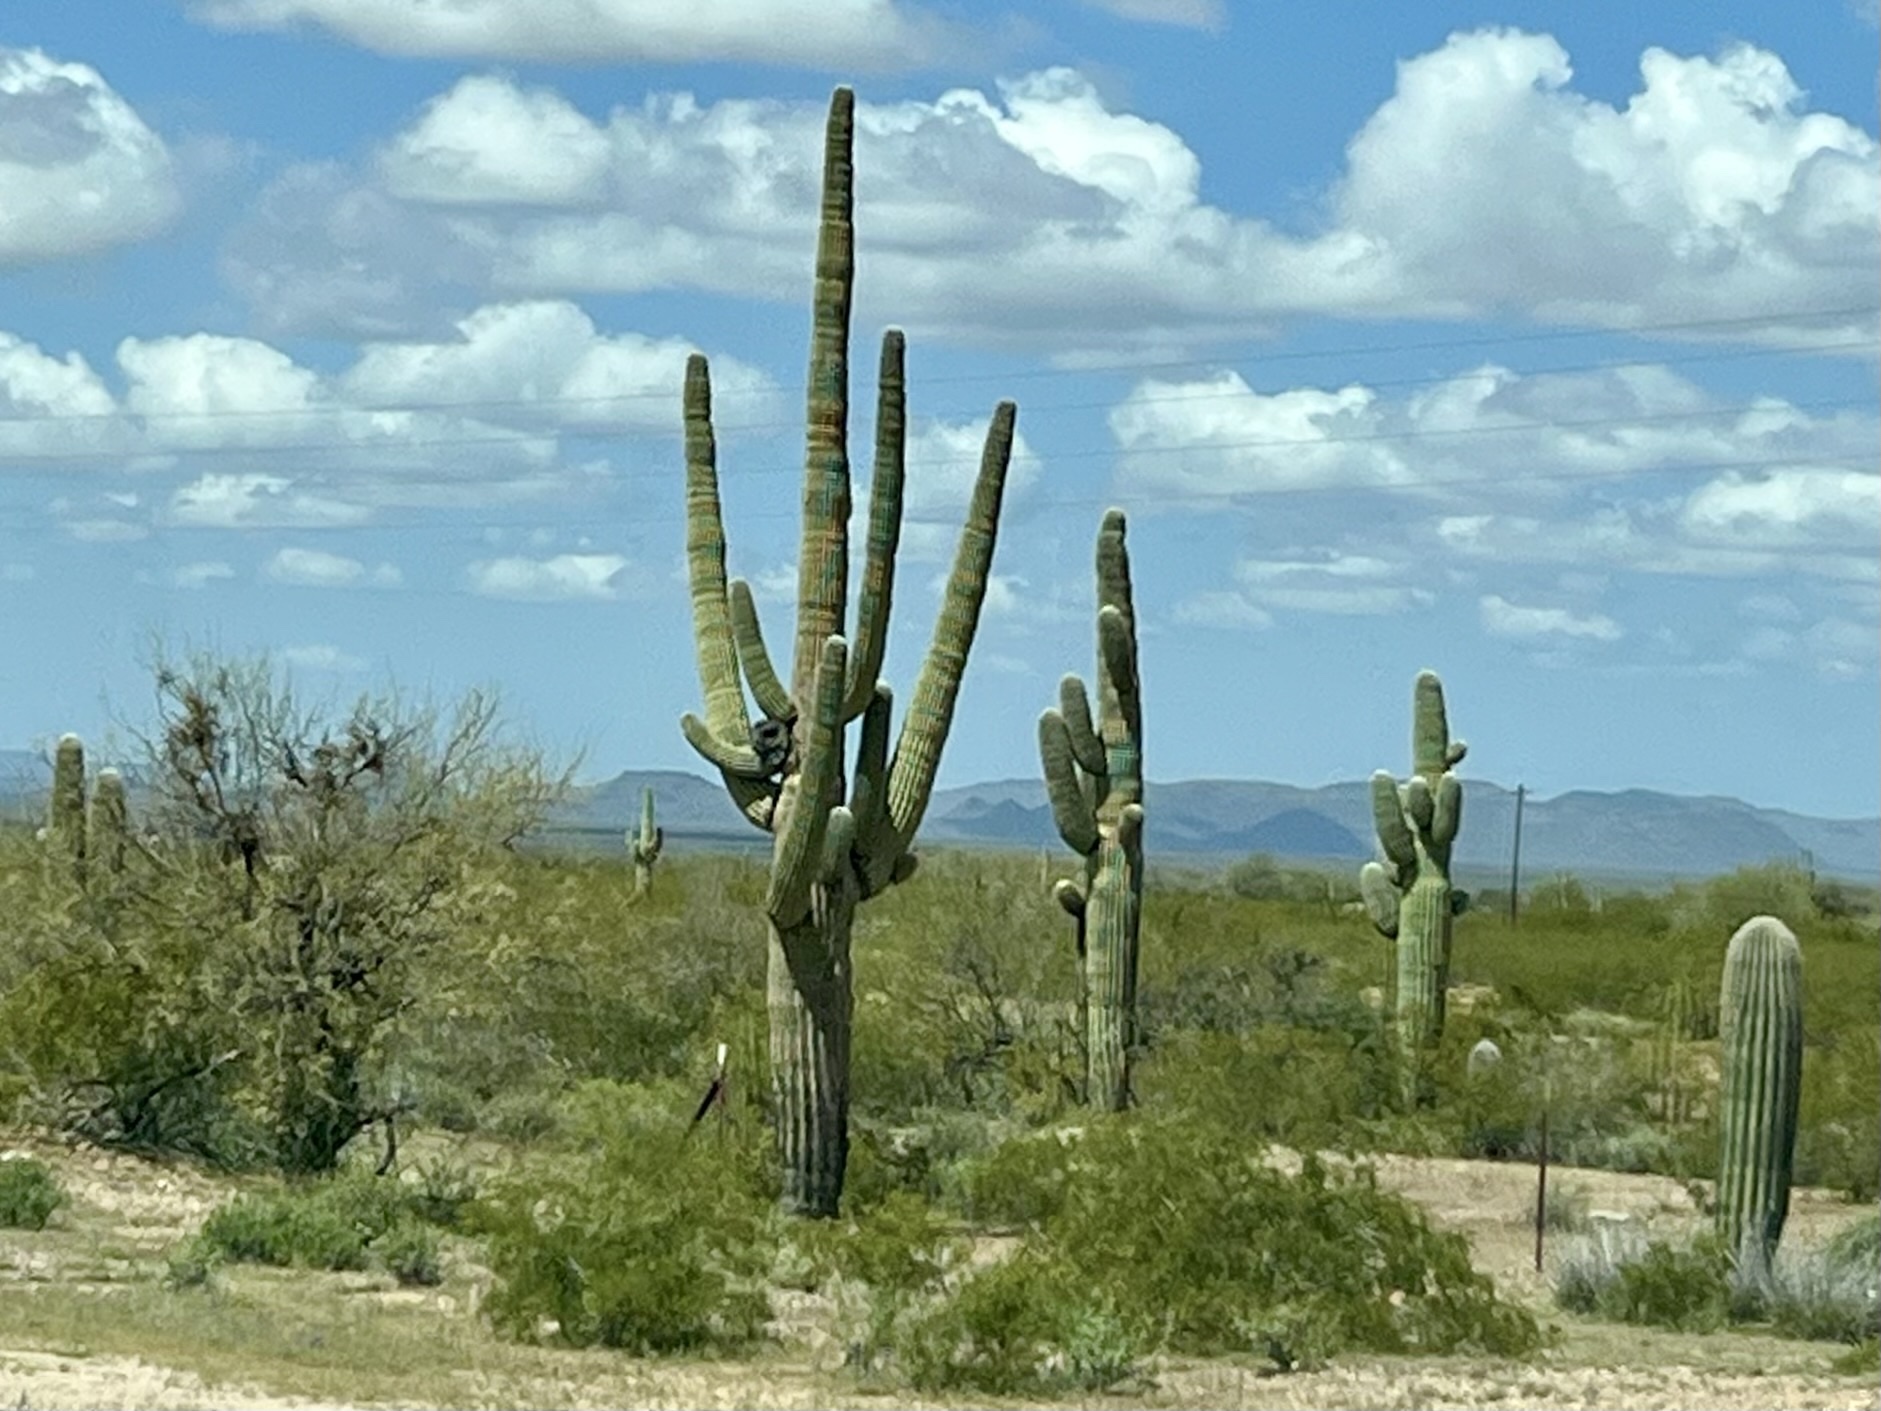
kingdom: Plantae
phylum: Tracheophyta
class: Magnoliopsida
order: Caryophyllales
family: Cactaceae
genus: Carnegiea
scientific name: Carnegiea gigantea
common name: Saguaro
